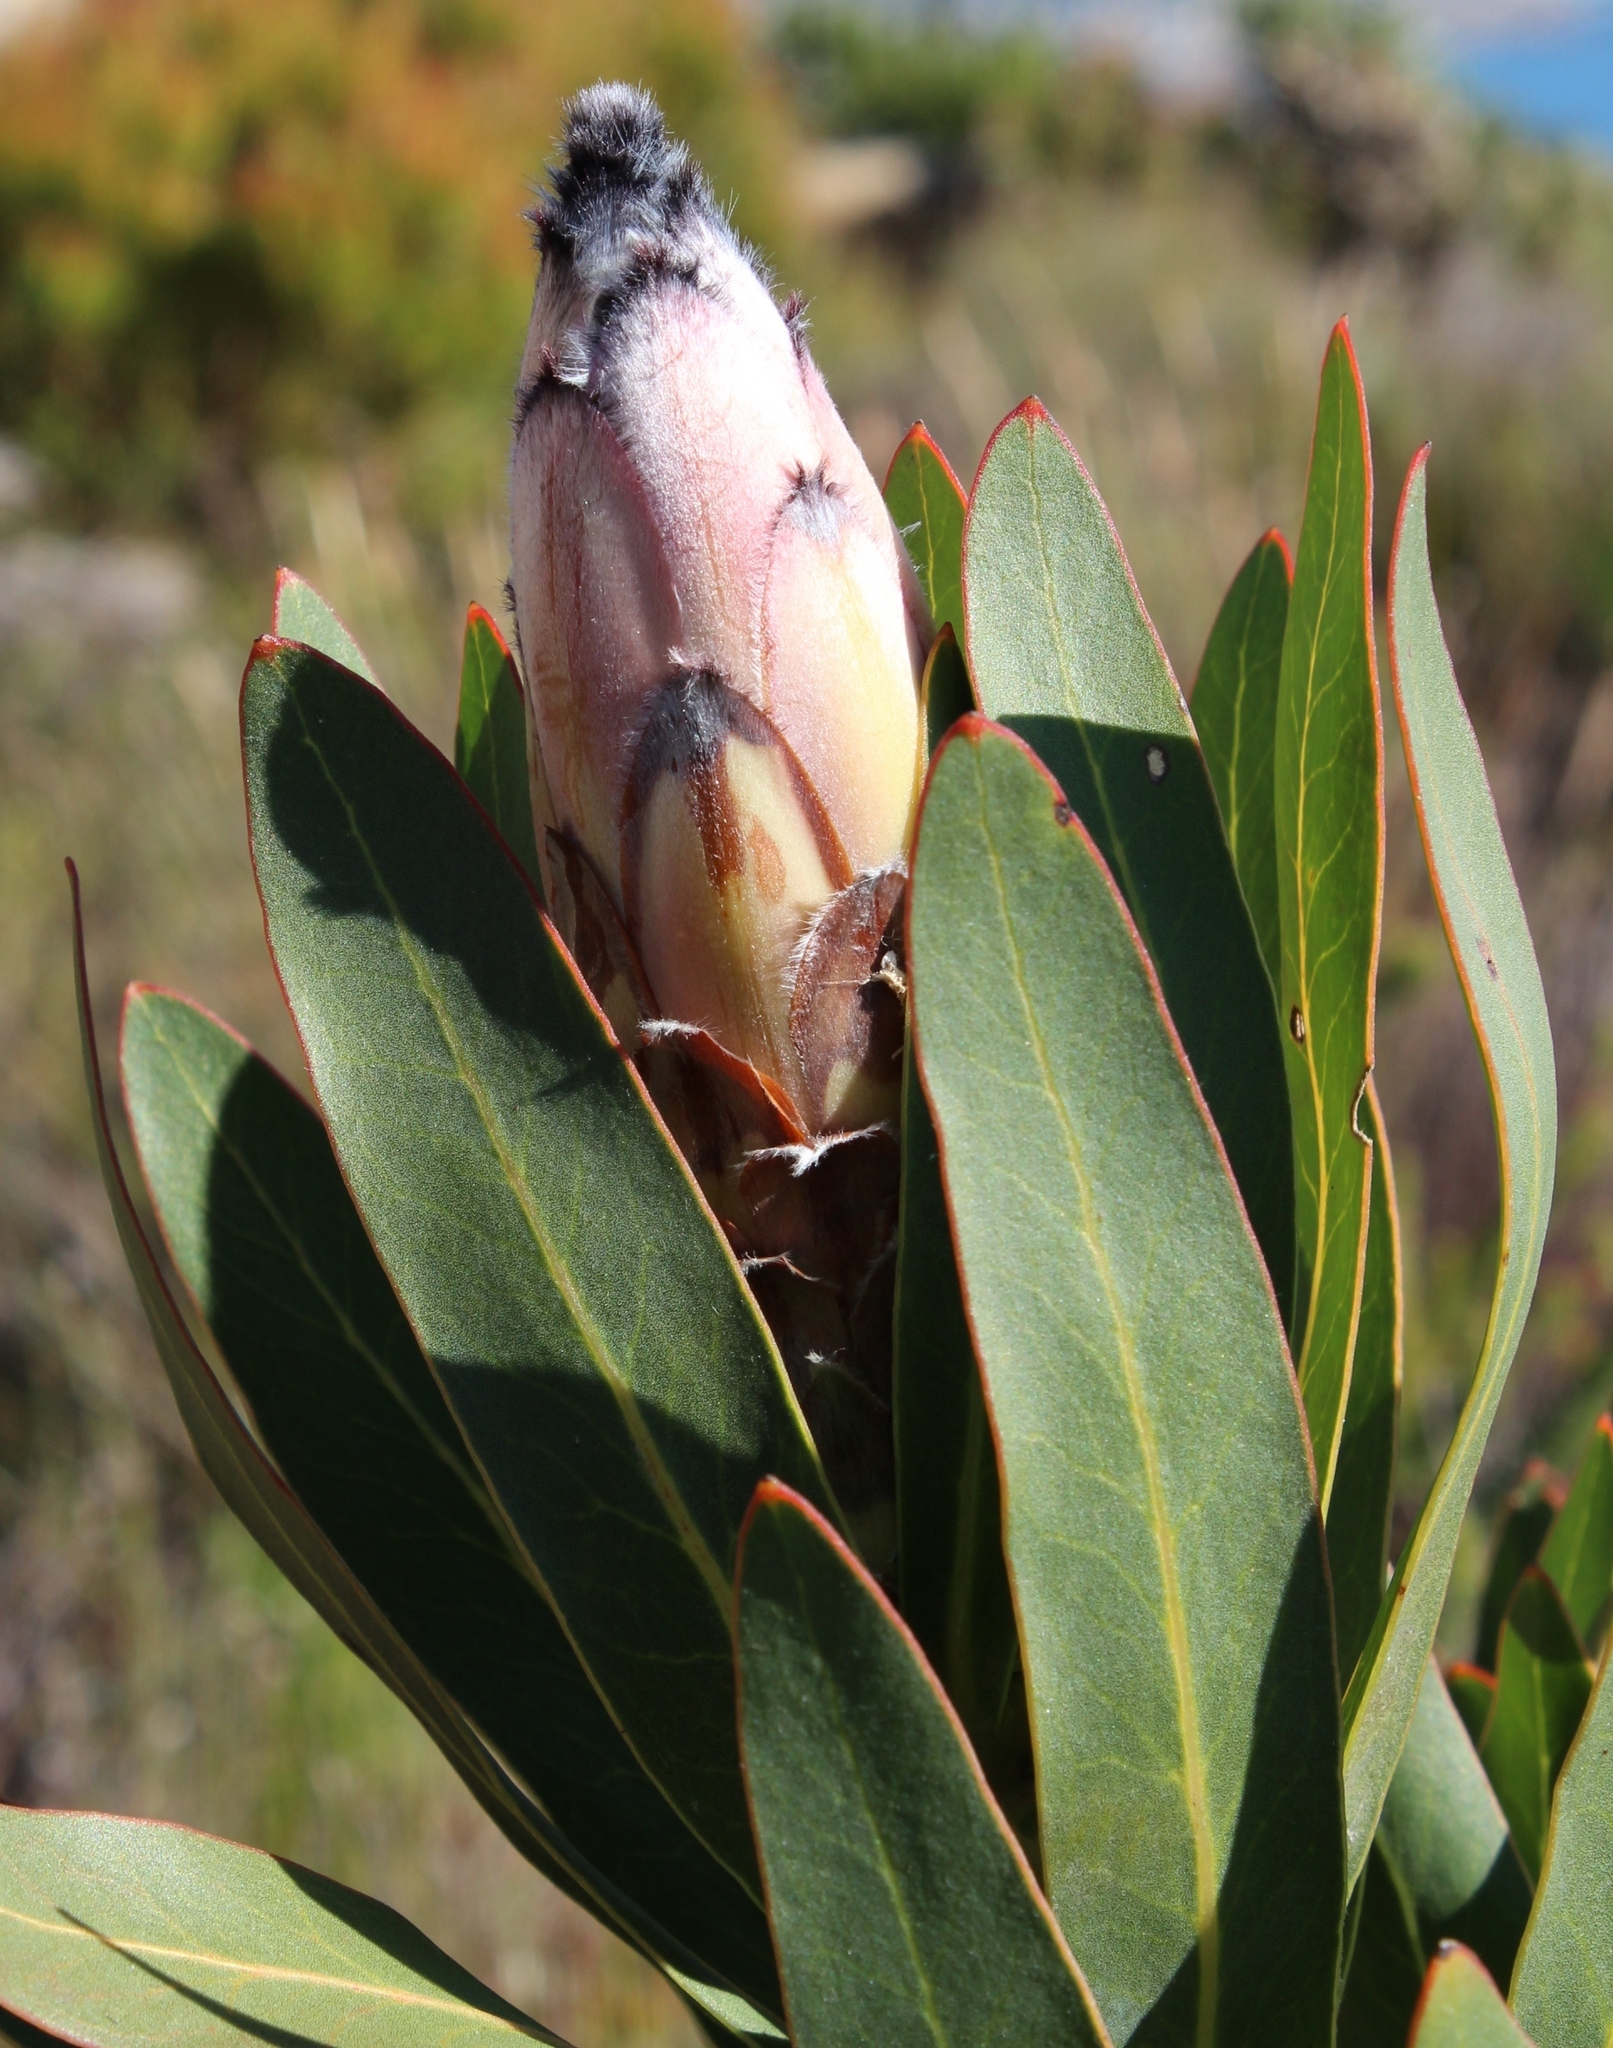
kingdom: Plantae
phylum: Tracheophyta
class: Magnoliopsida
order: Proteales
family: Proteaceae
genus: Protea
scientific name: Protea
